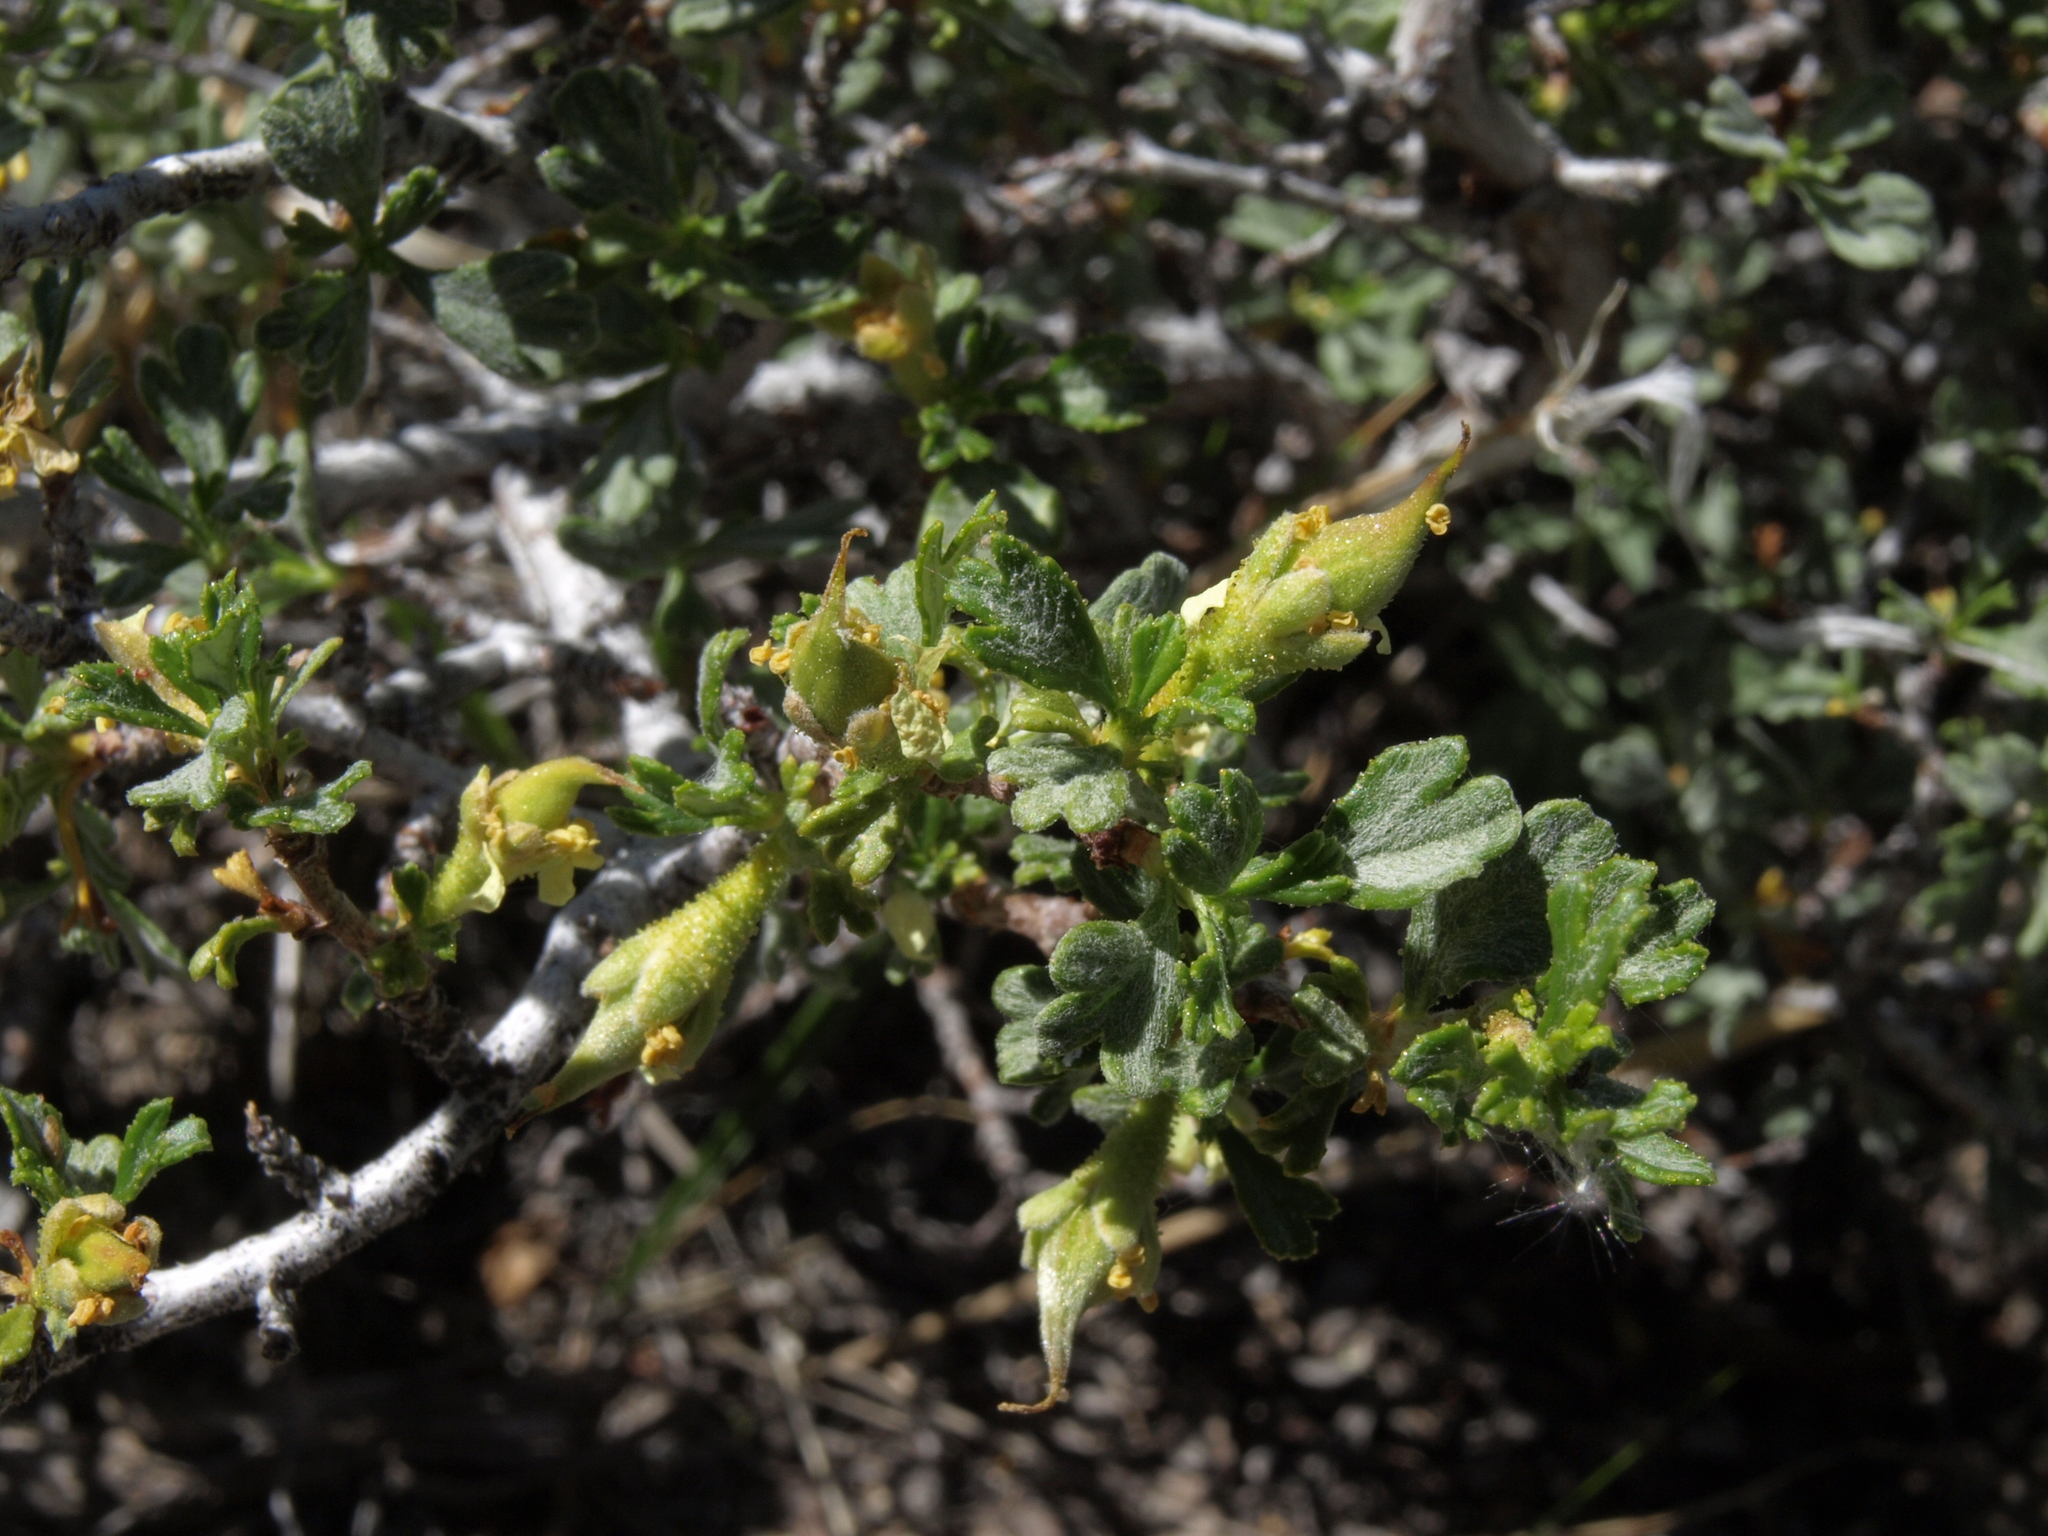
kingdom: Plantae
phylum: Tracheophyta
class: Magnoliopsida
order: Rosales
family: Rosaceae
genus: Purshia
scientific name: Purshia tridentata
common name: Antelope bitterbrush
